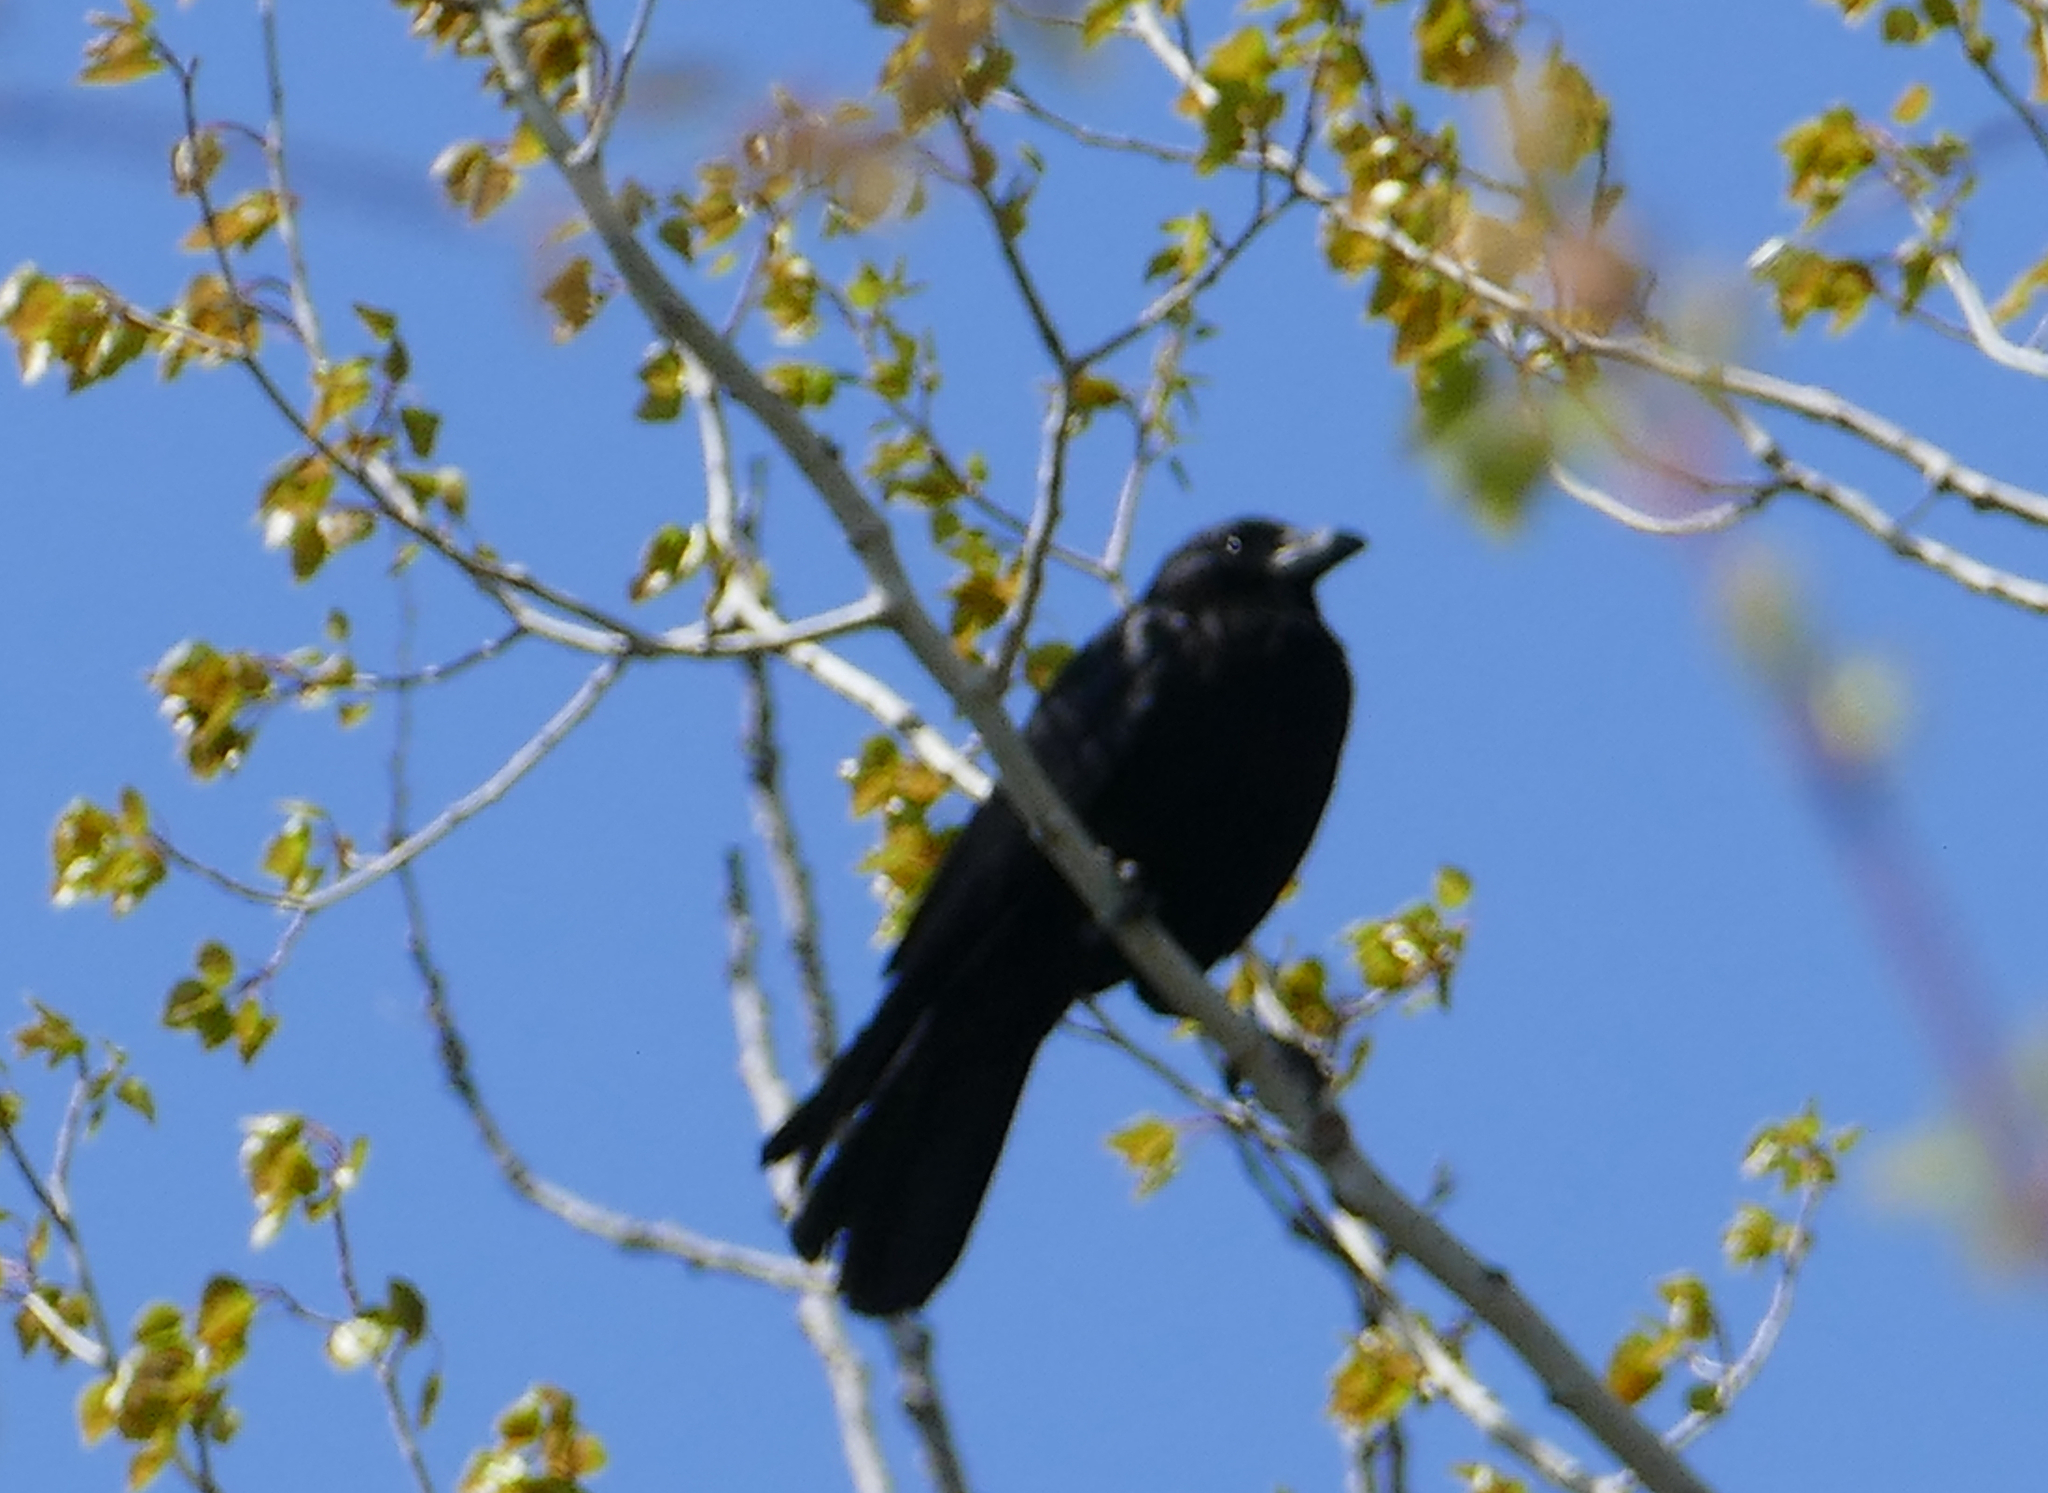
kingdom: Animalia
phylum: Chordata
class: Aves
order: Passeriformes
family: Corvidae
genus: Corvus
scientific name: Corvus brachyrhynchos
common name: American crow
